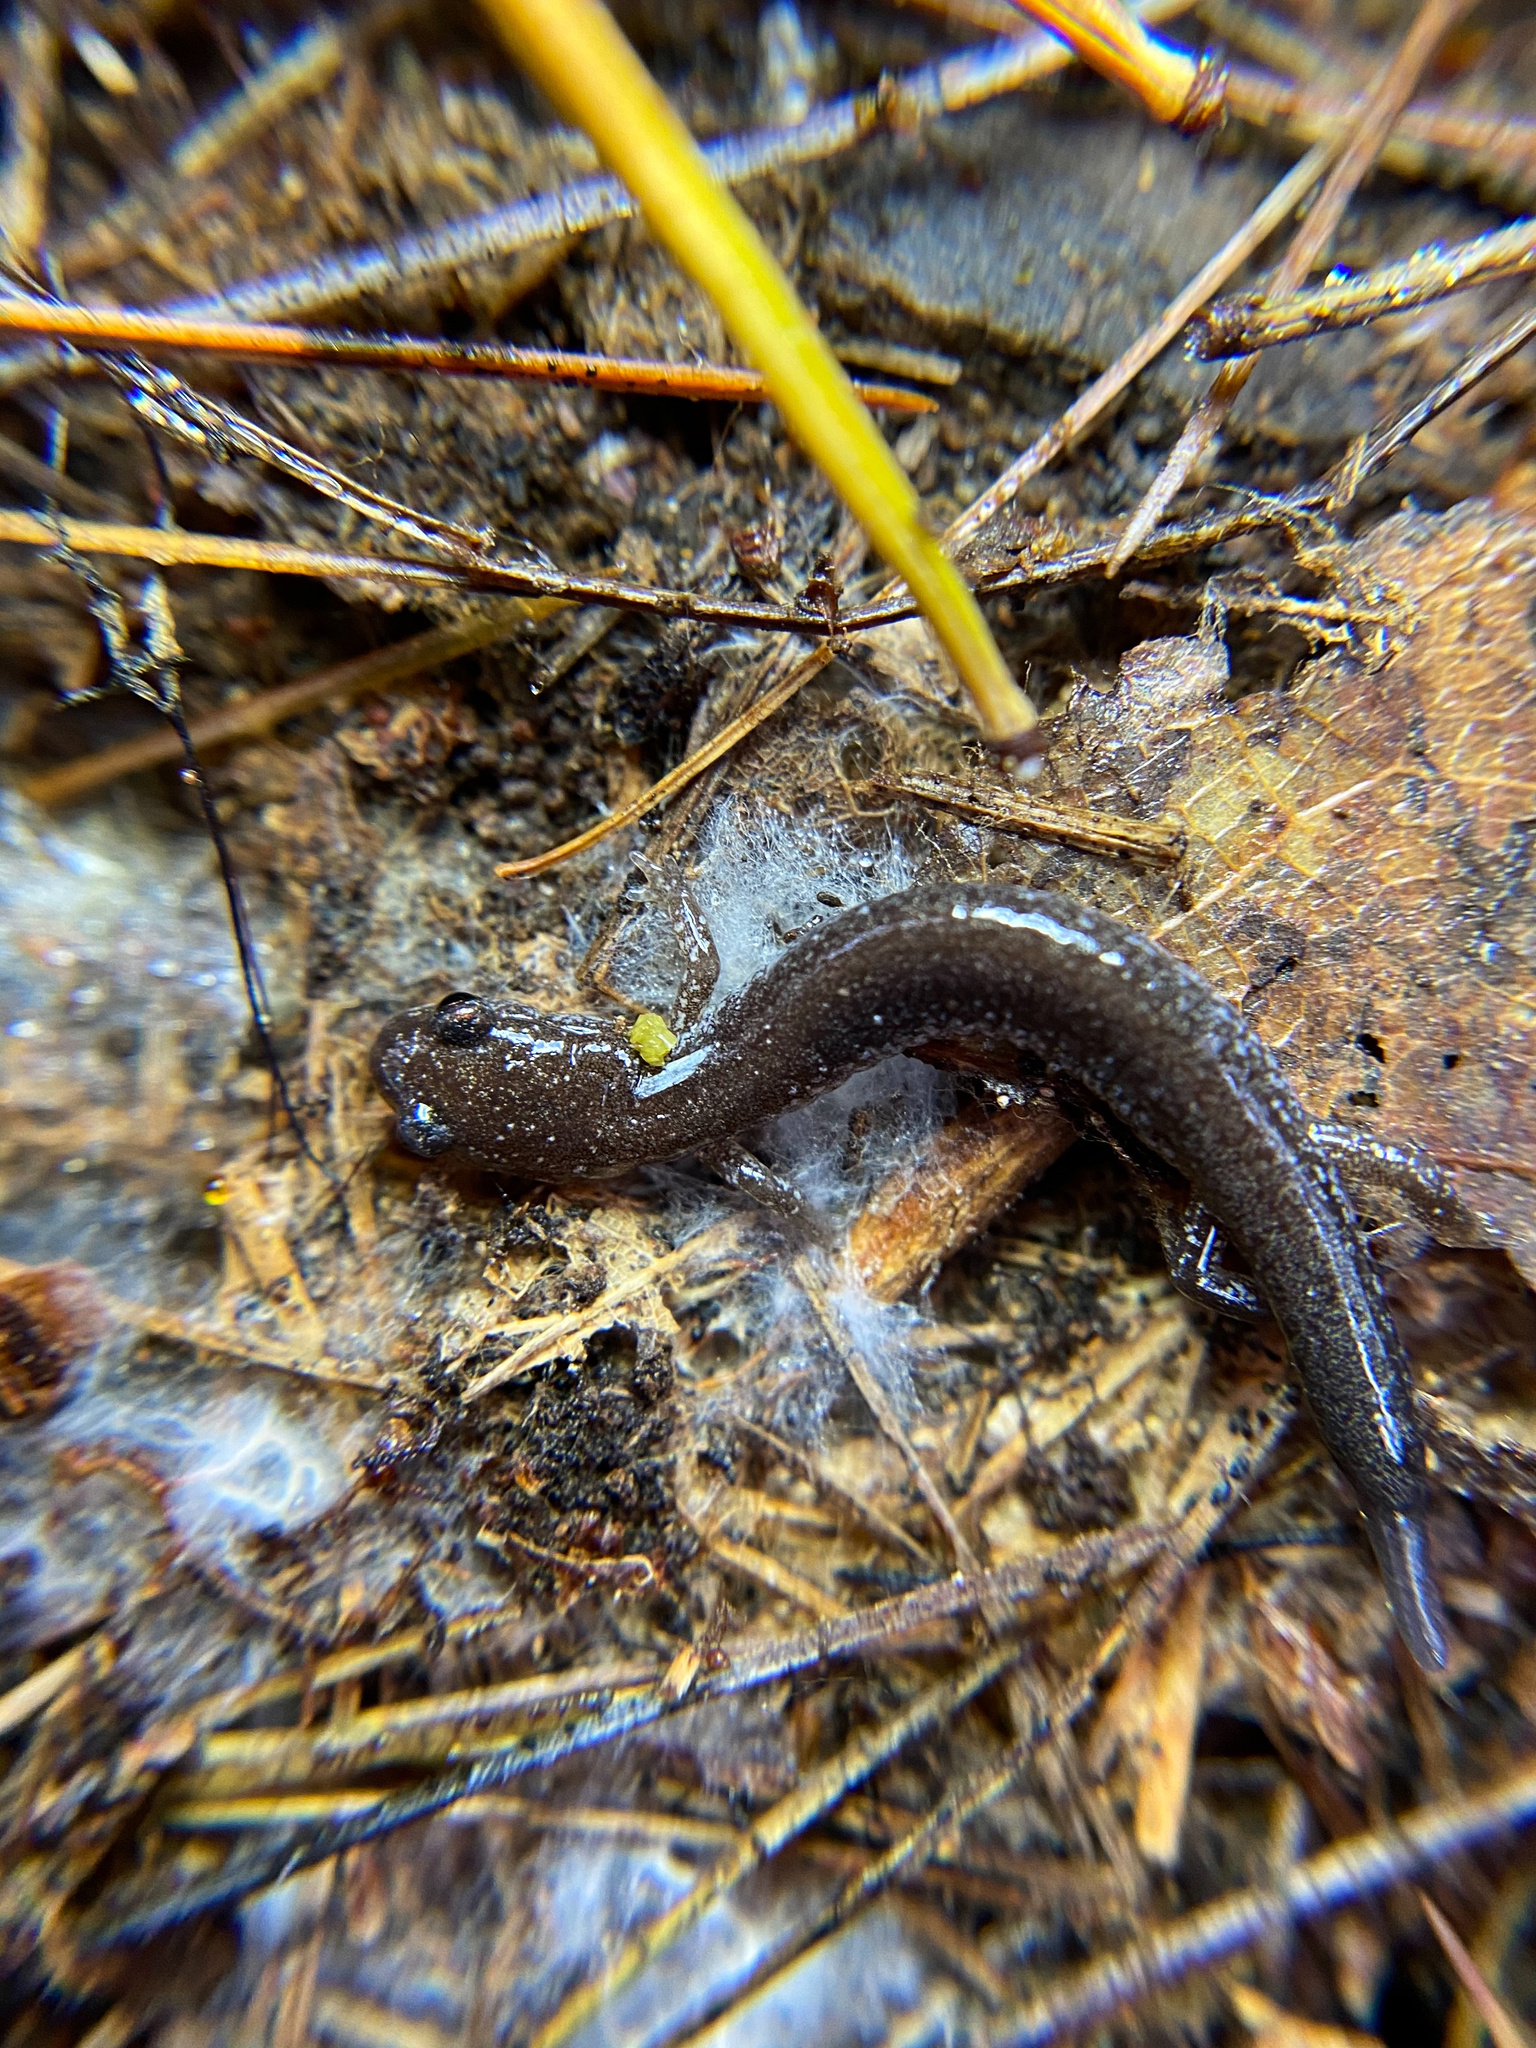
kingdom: Animalia
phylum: Chordata
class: Amphibia
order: Caudata
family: Plethodontidae
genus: Plethodon
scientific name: Plethodon cinereus
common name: Redback salamander
